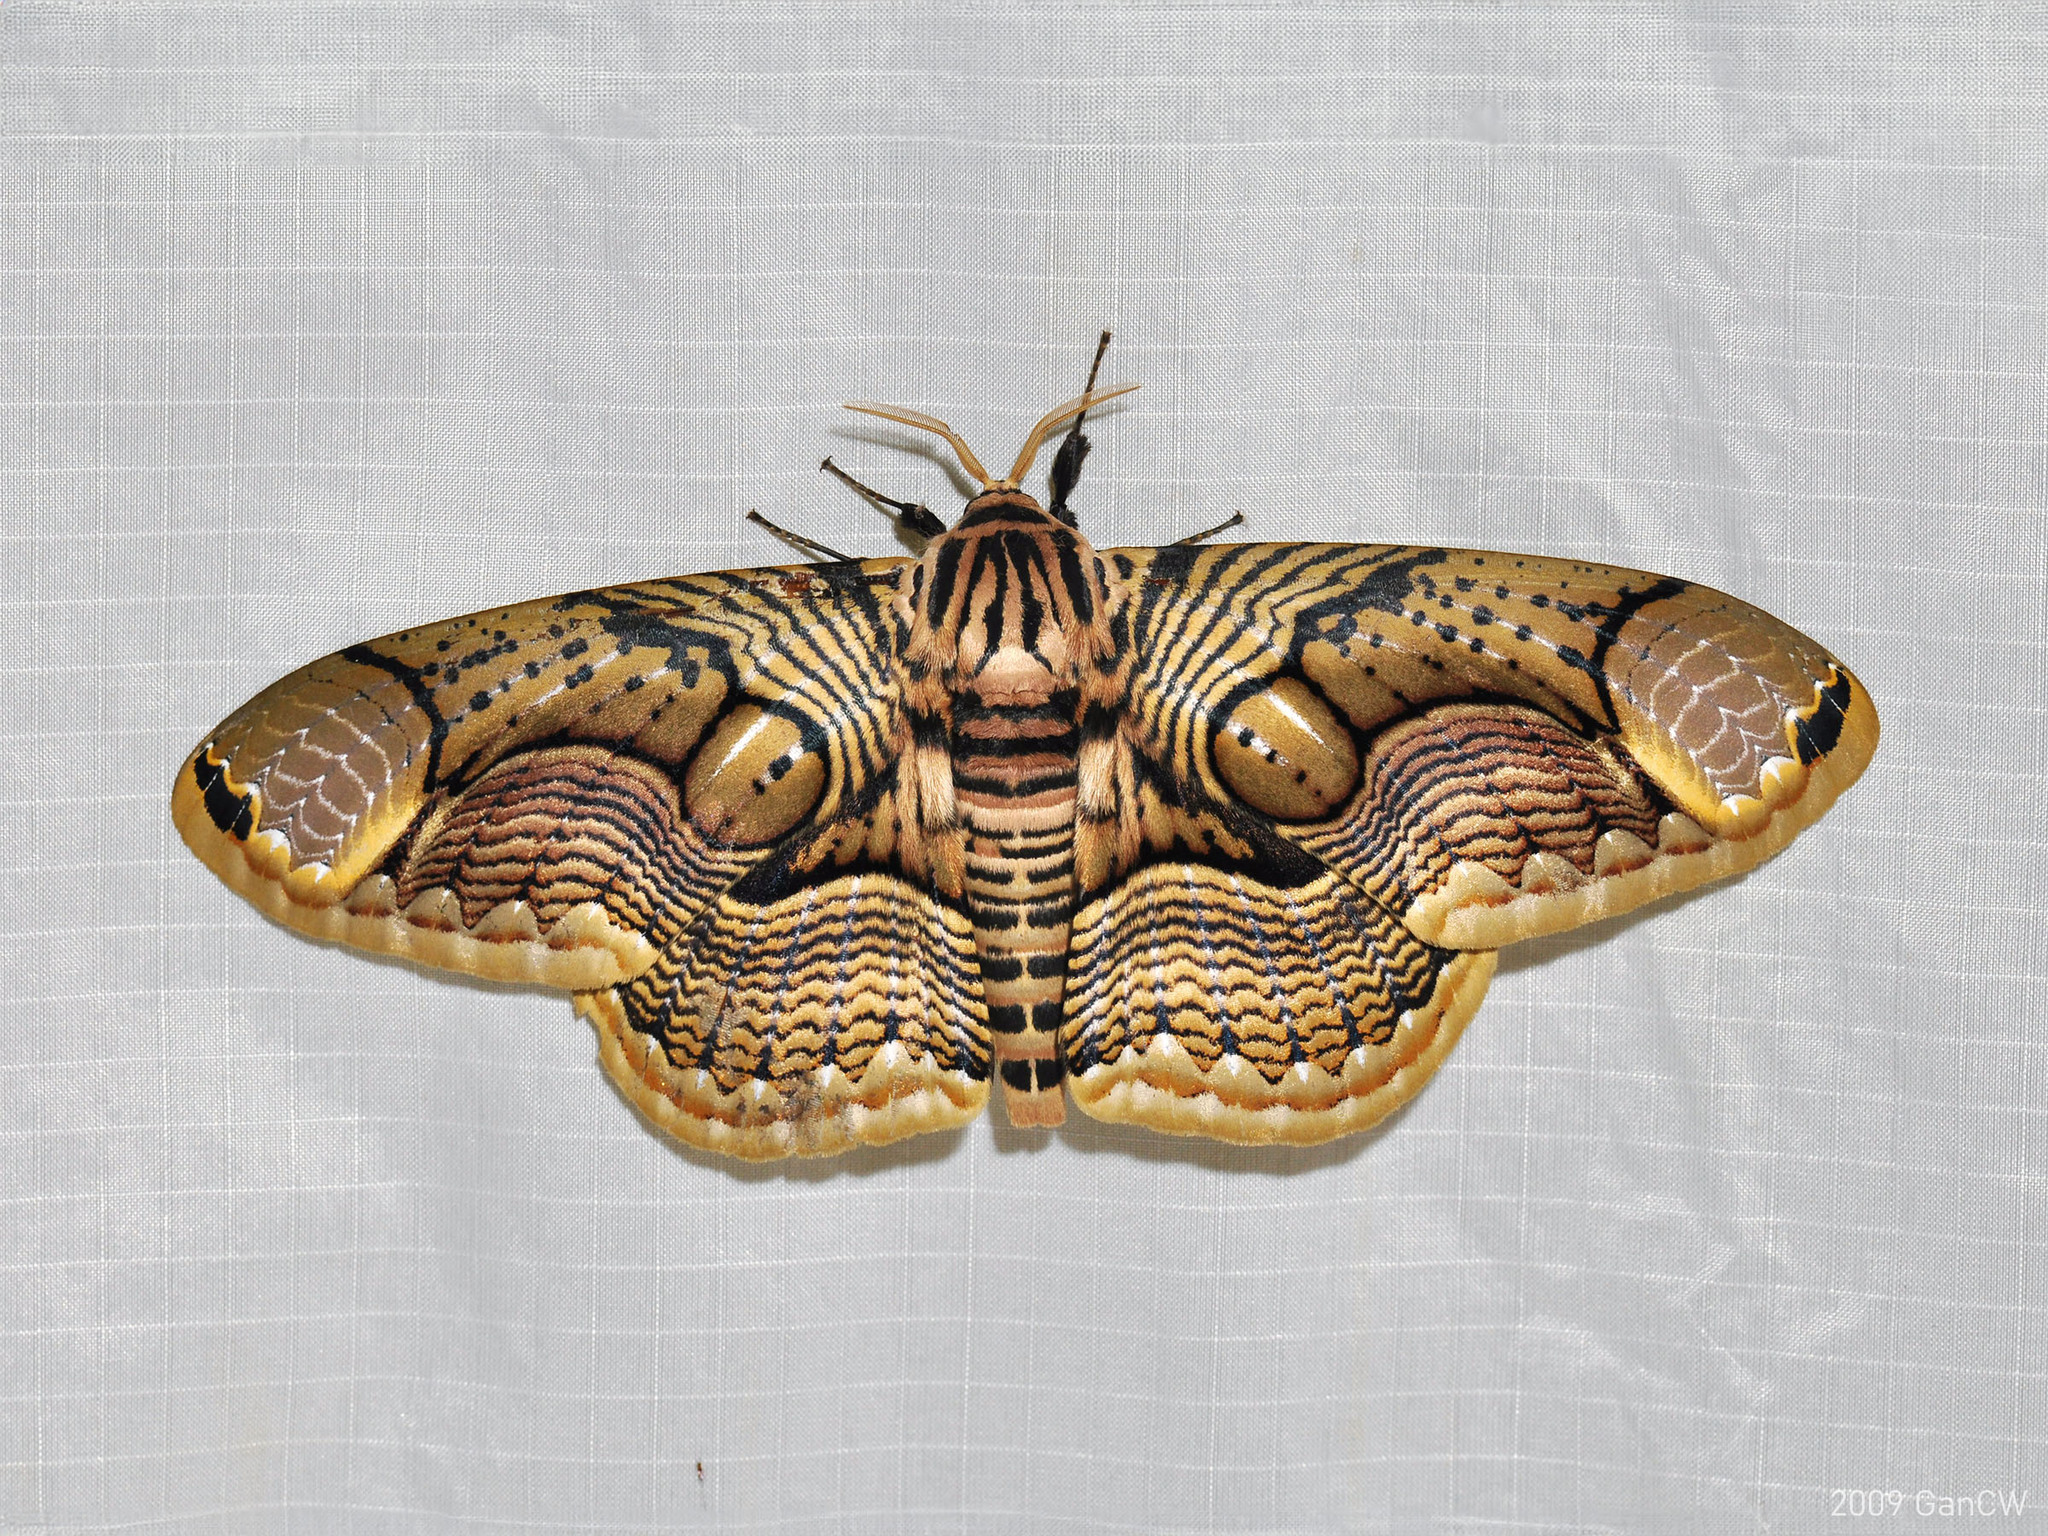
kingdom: Animalia
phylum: Arthropoda
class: Insecta
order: Lepidoptera
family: Brahmaeidae
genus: Brahmaea
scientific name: Brahmaea hearseyi
